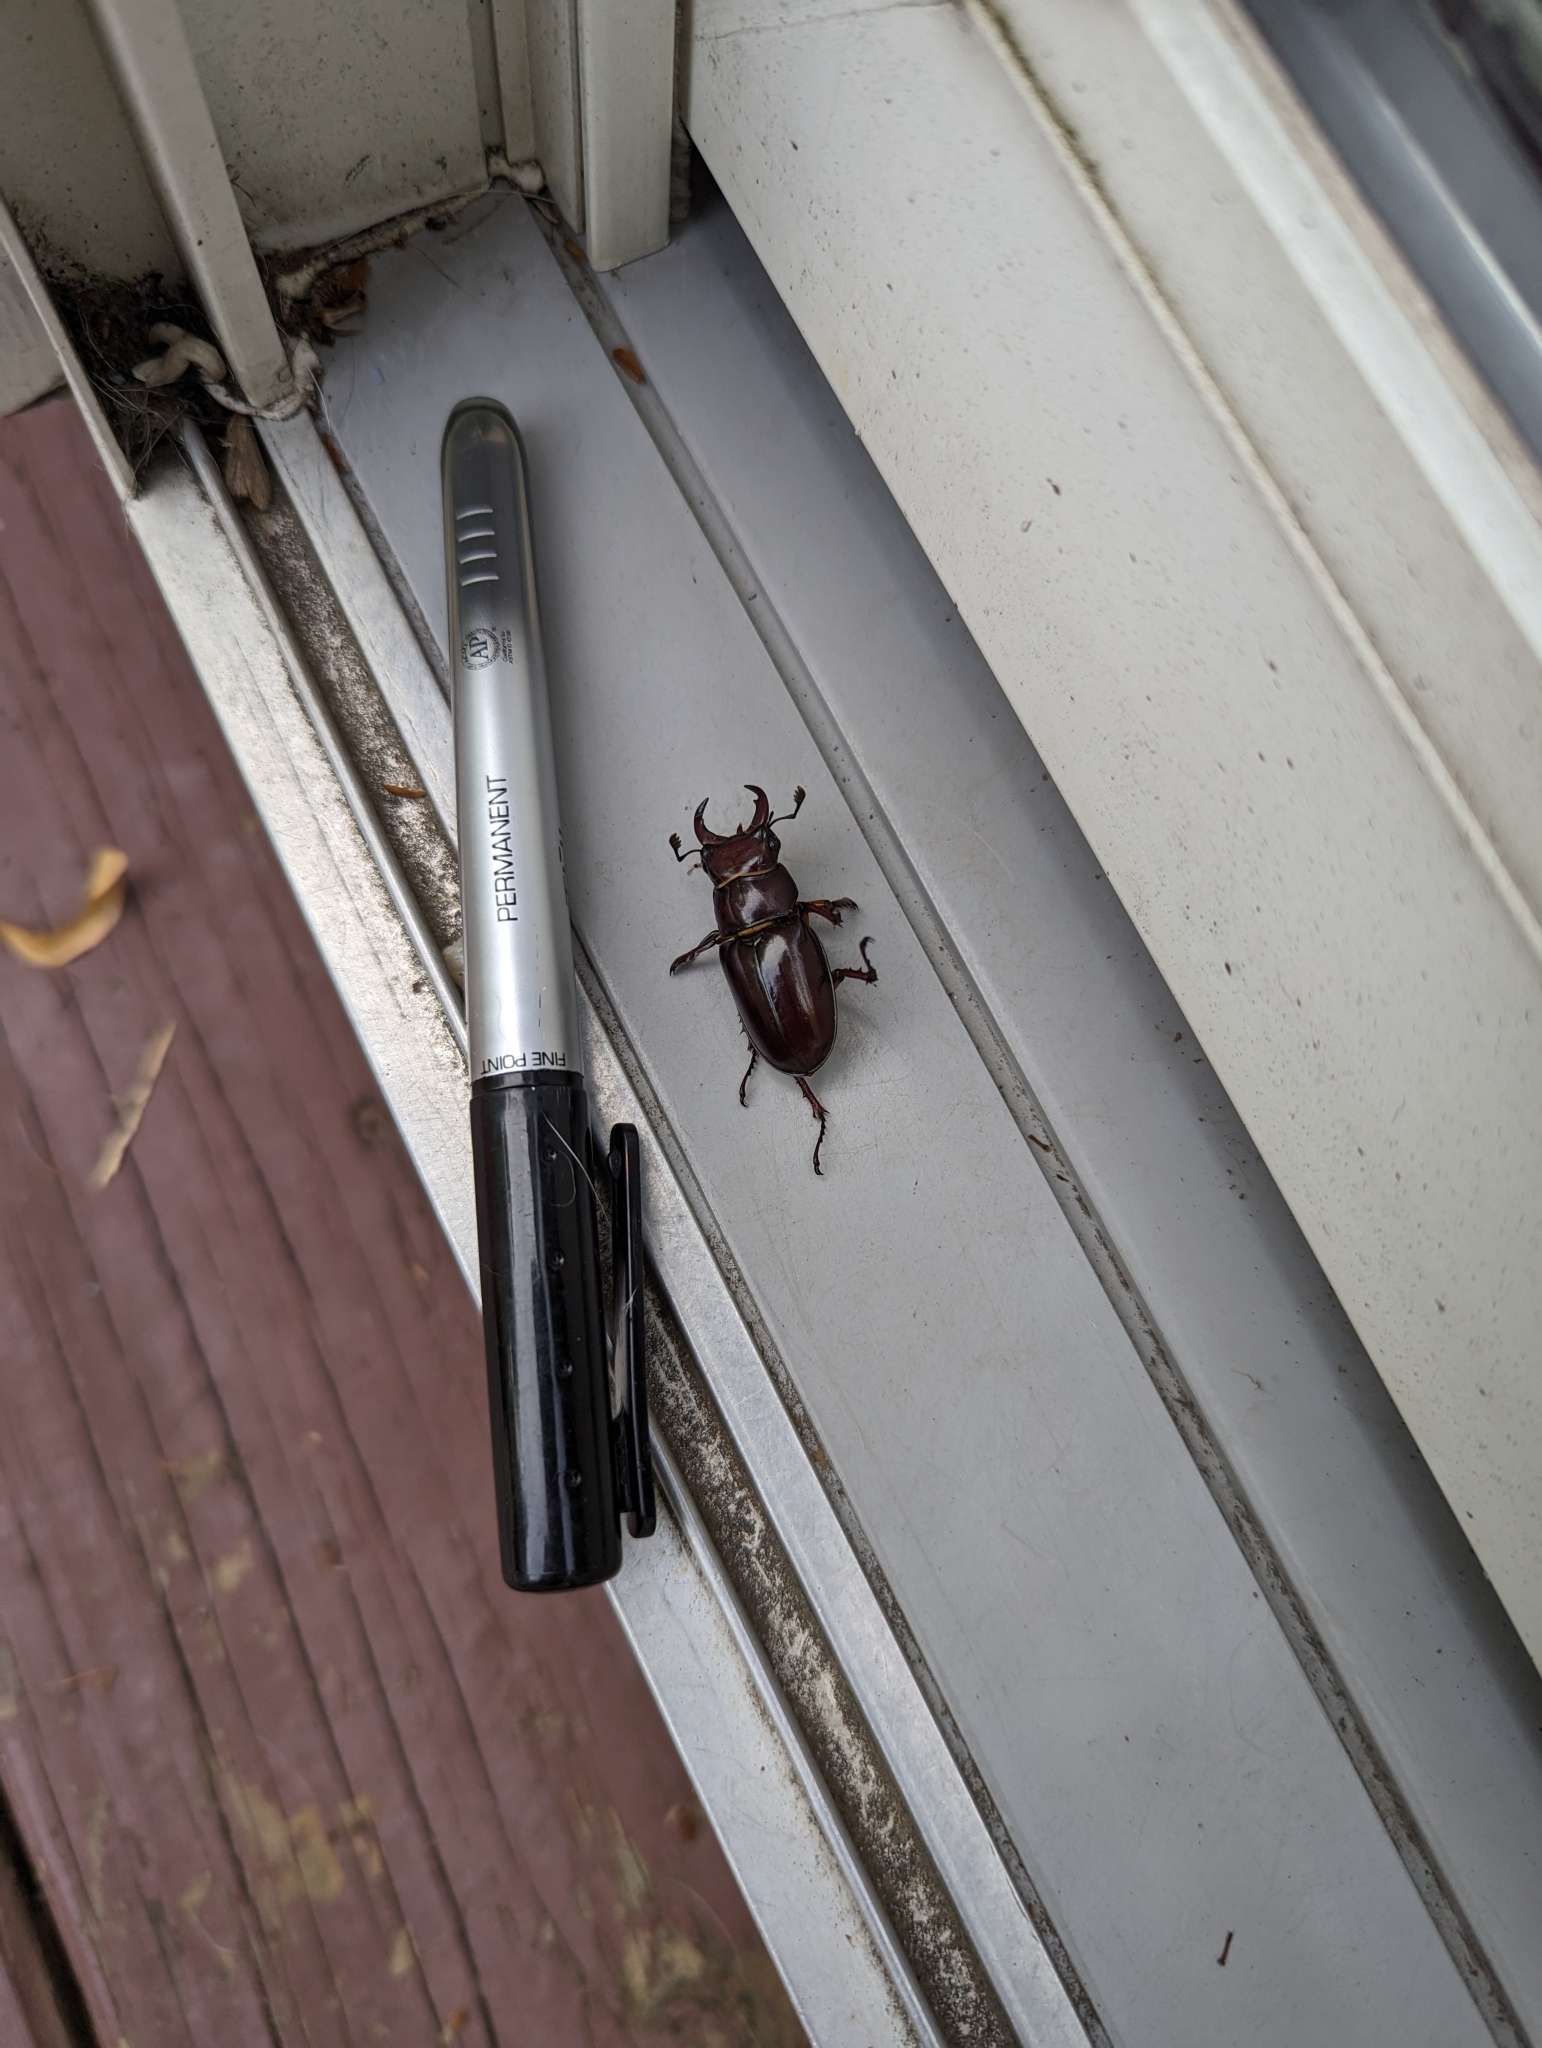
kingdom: Animalia
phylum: Arthropoda
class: Insecta
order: Coleoptera
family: Lucanidae
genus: Lucanus
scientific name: Lucanus capreolus
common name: Stag beetle
